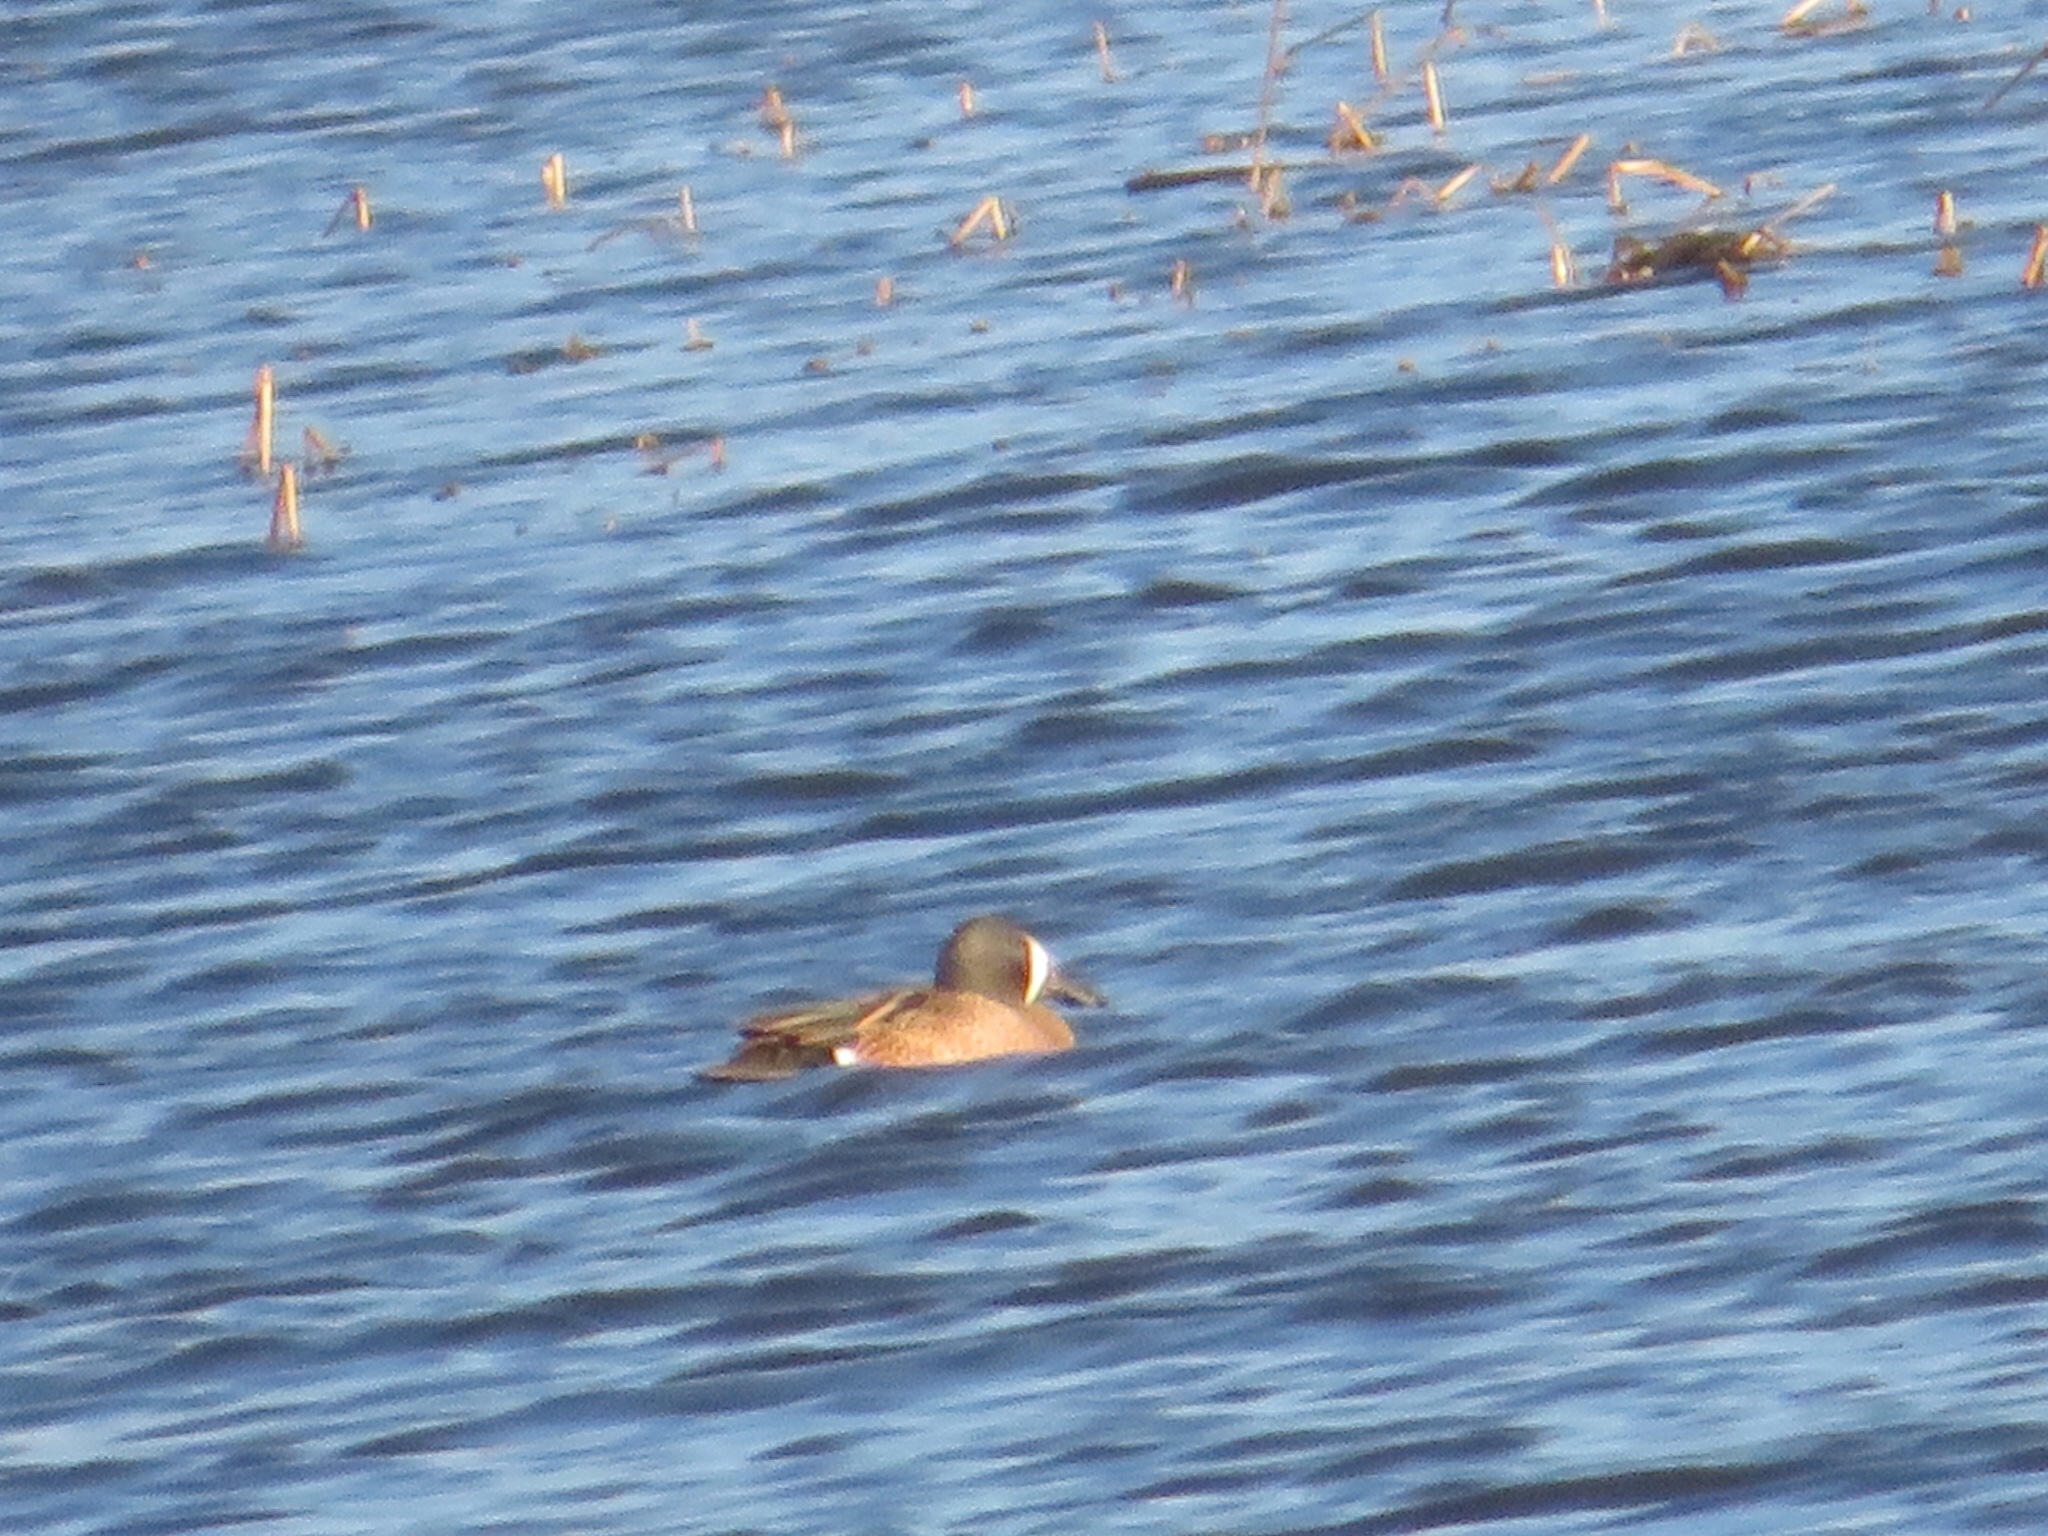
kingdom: Animalia
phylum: Chordata
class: Aves
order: Anseriformes
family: Anatidae
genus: Spatula
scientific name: Spatula discors
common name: Blue-winged teal
